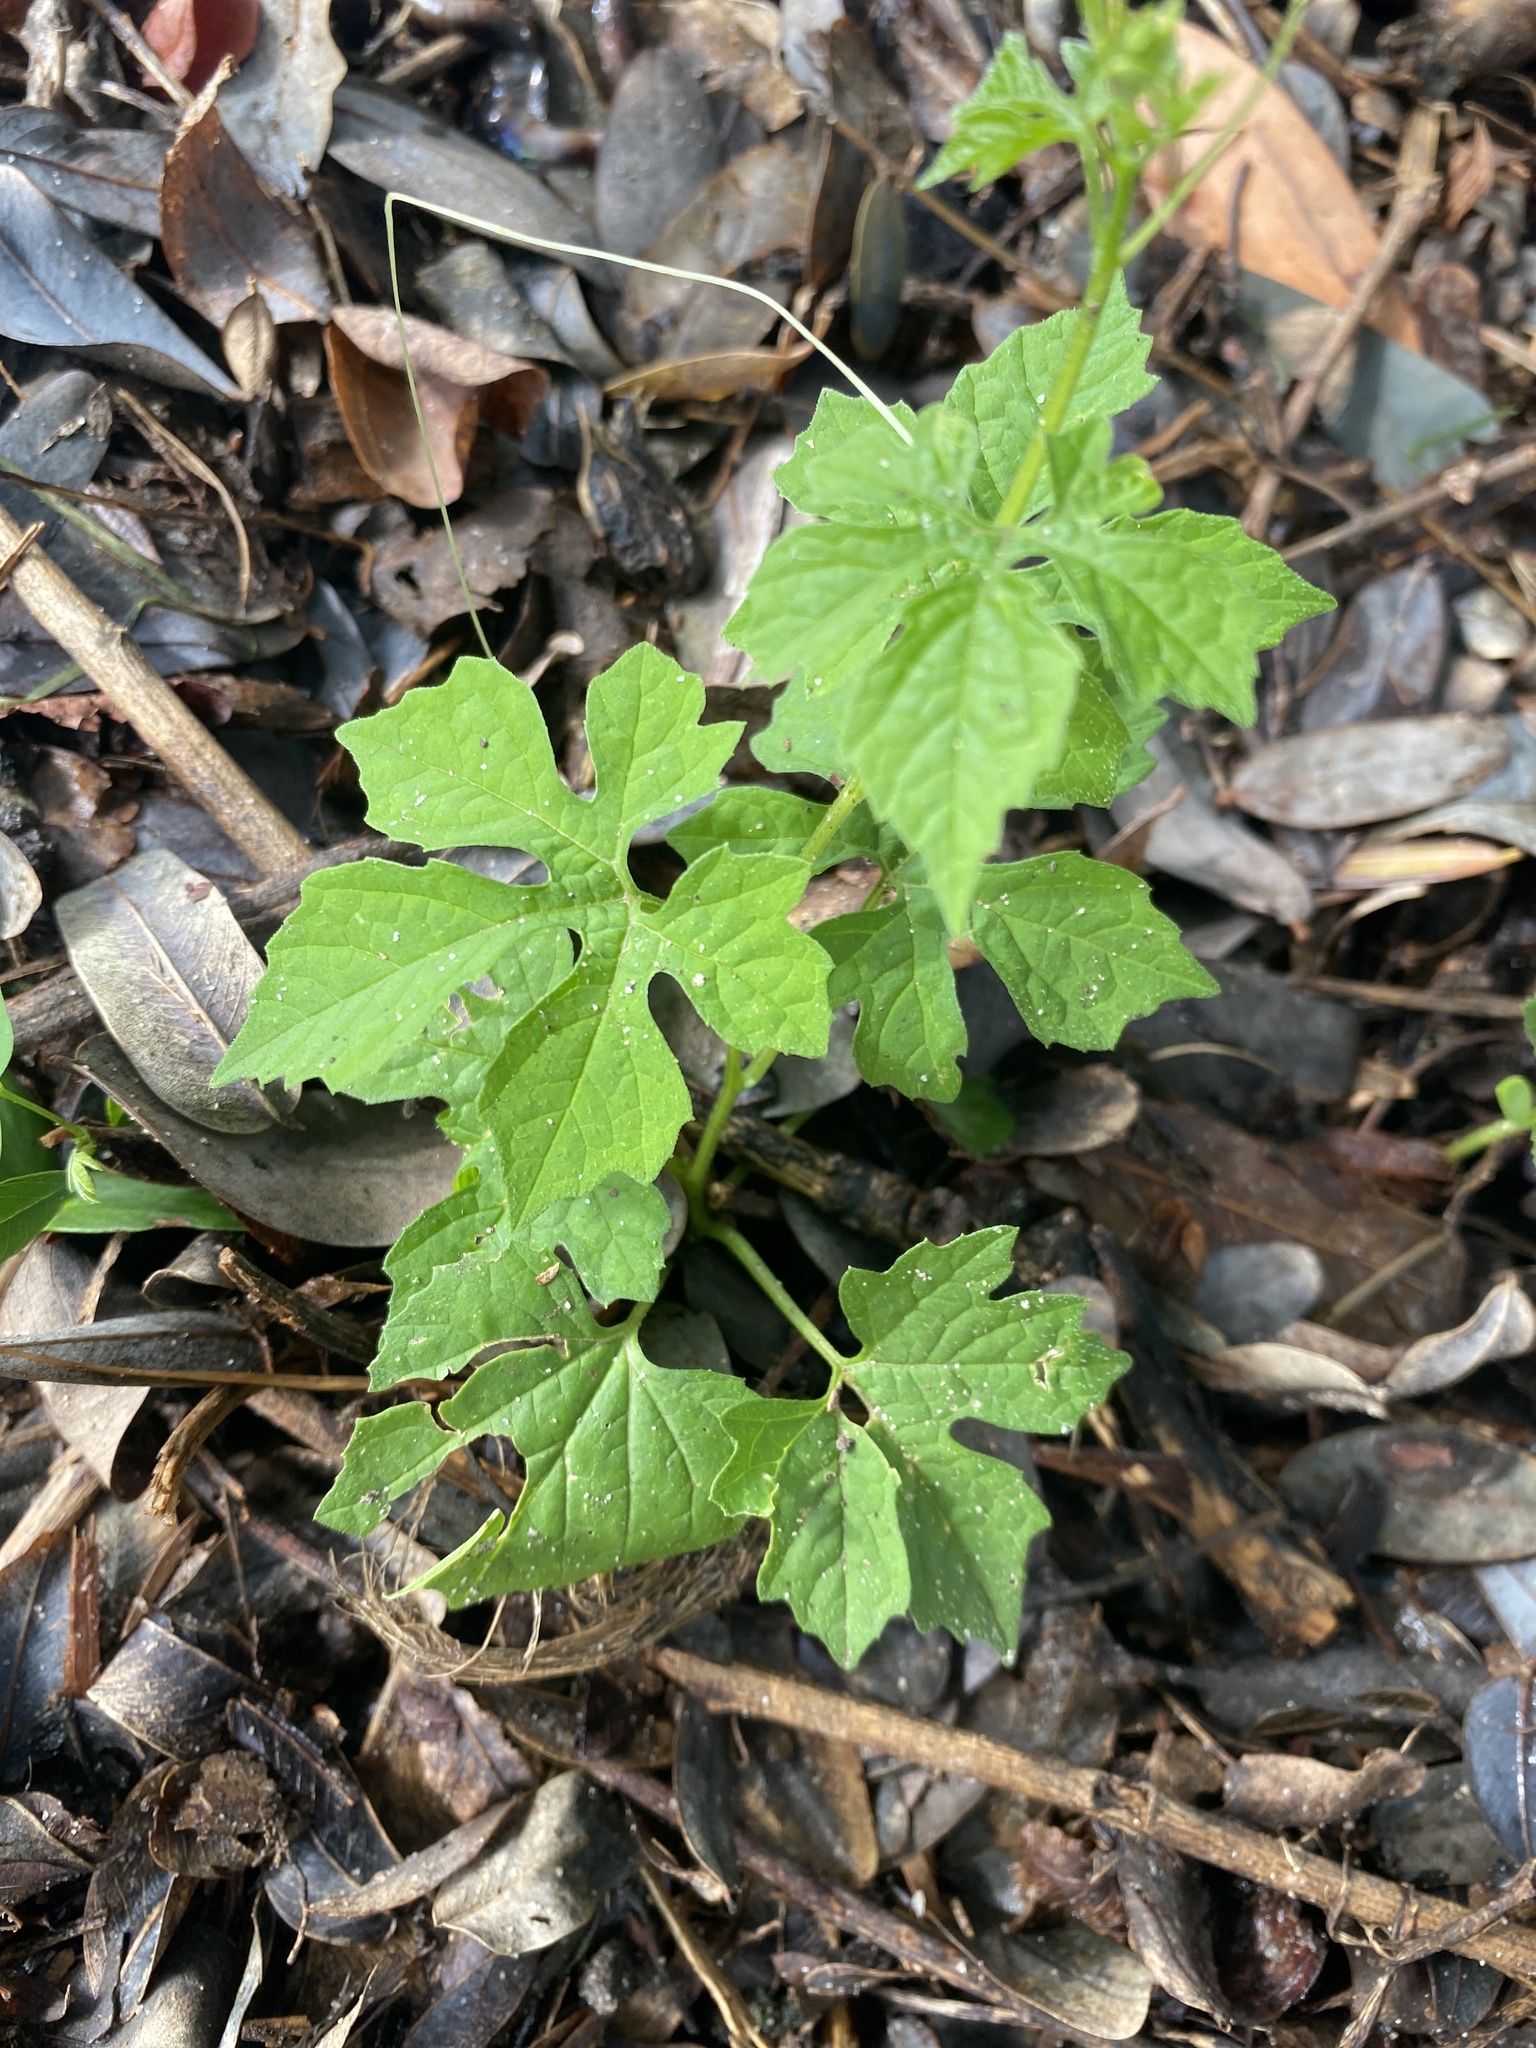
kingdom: Plantae
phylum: Tracheophyta
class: Magnoliopsida
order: Cucurbitales
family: Cucurbitaceae
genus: Momordica
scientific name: Momordica charantia
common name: Balsampear
